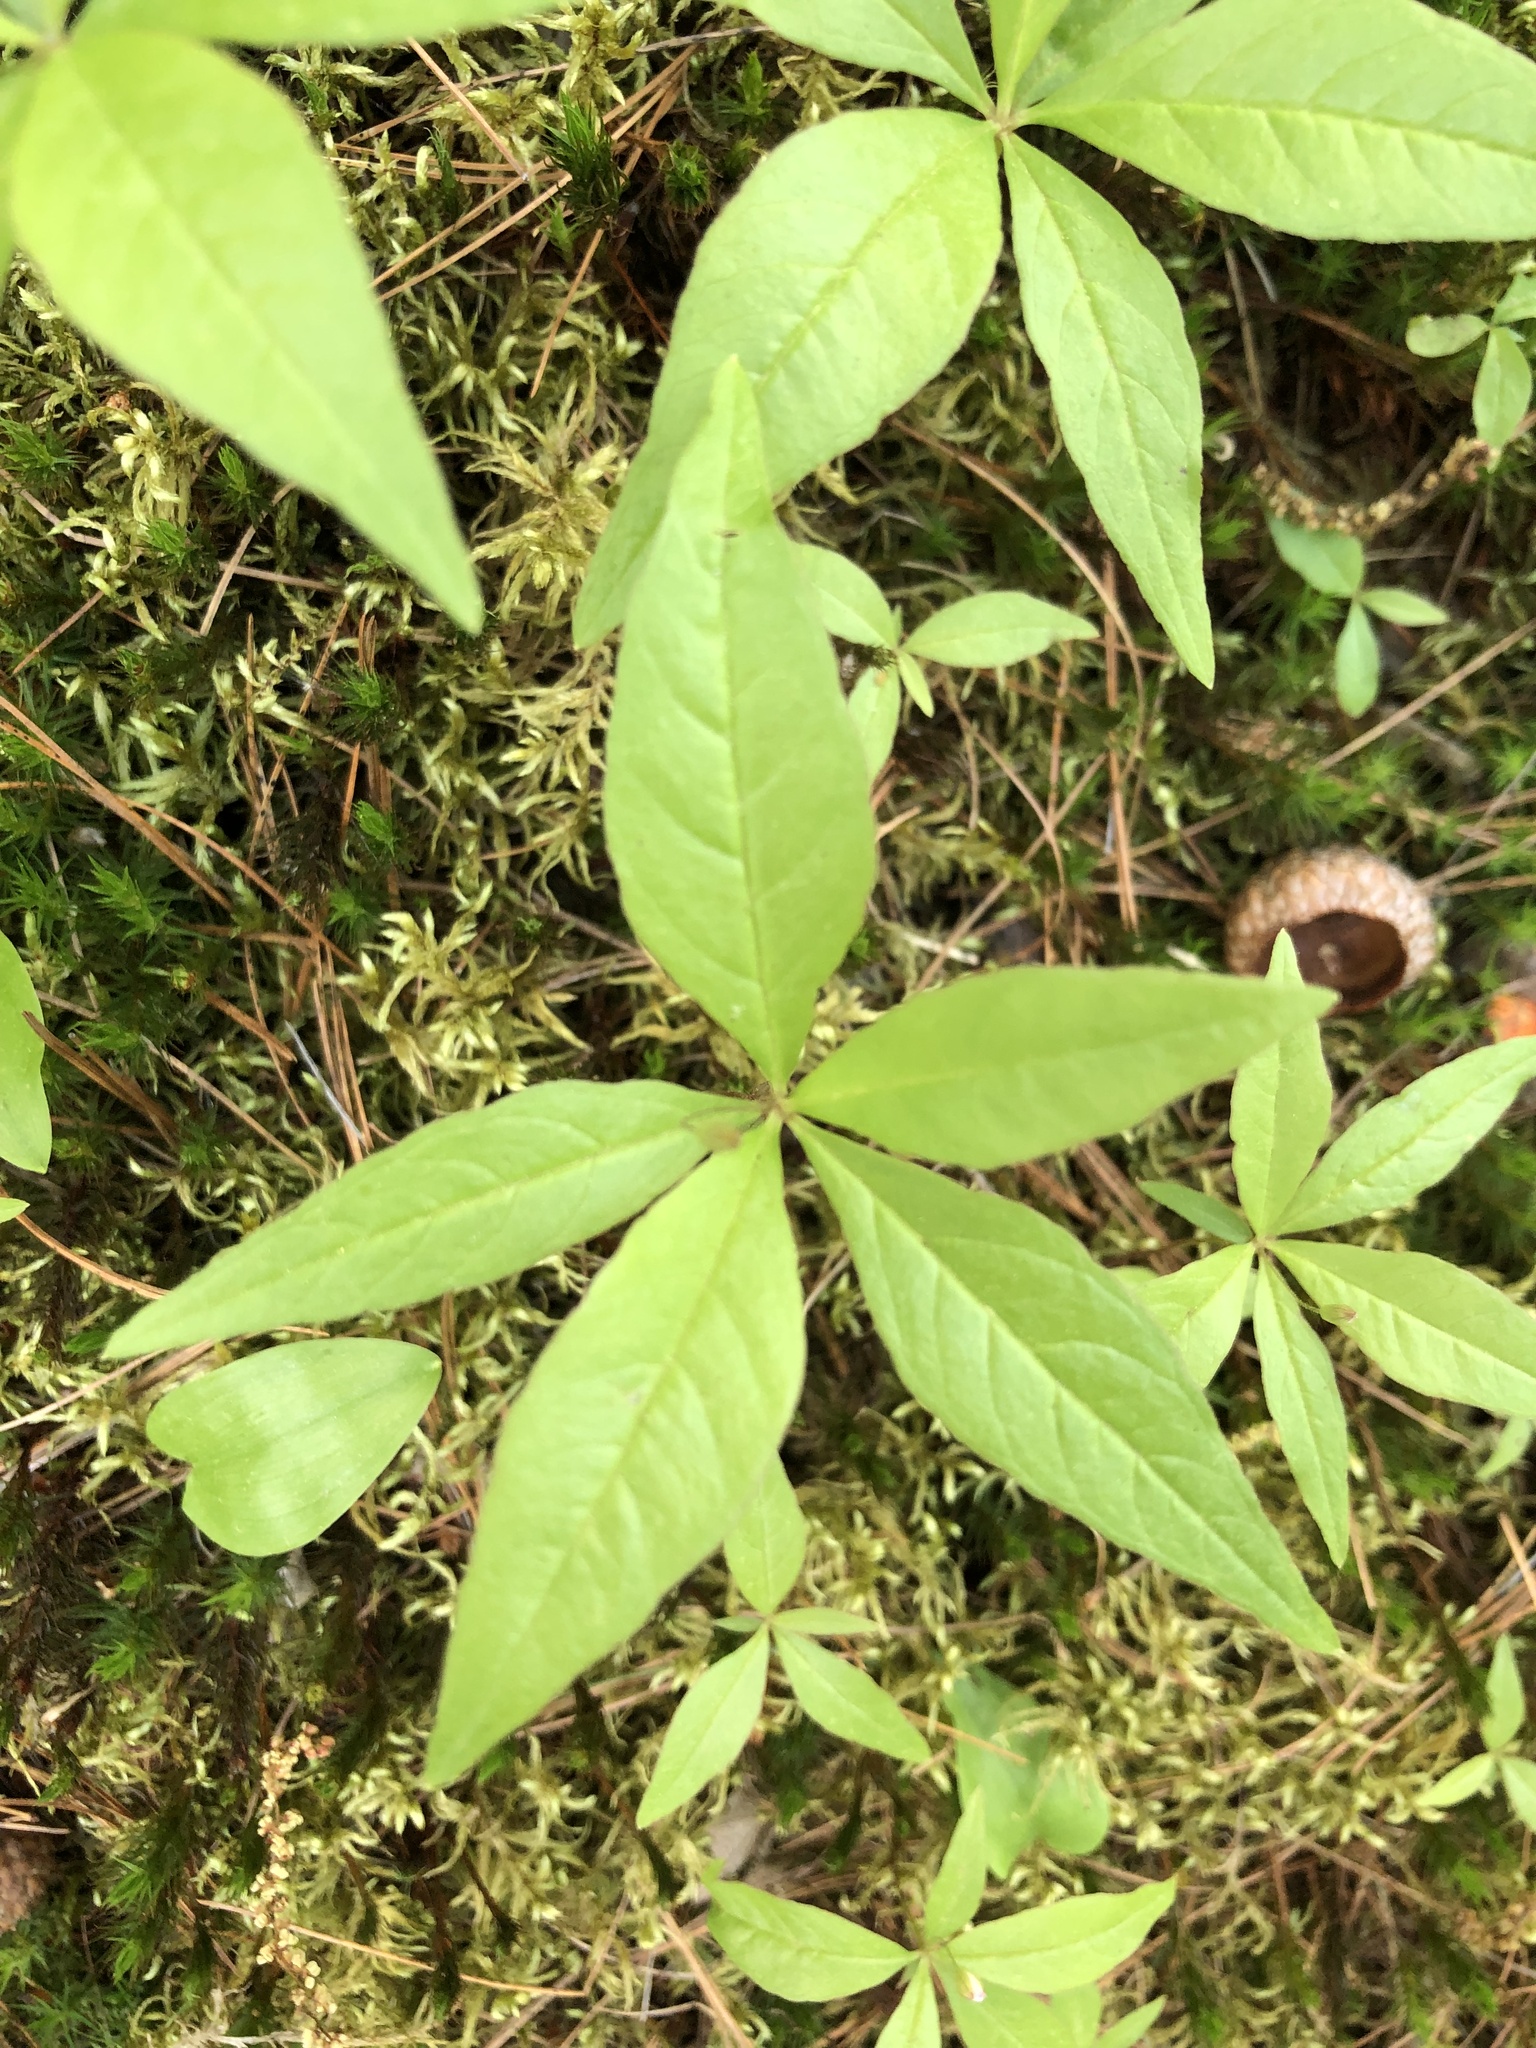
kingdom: Plantae
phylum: Tracheophyta
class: Magnoliopsida
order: Ericales
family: Primulaceae
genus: Lysimachia
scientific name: Lysimachia borealis
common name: American starflower
